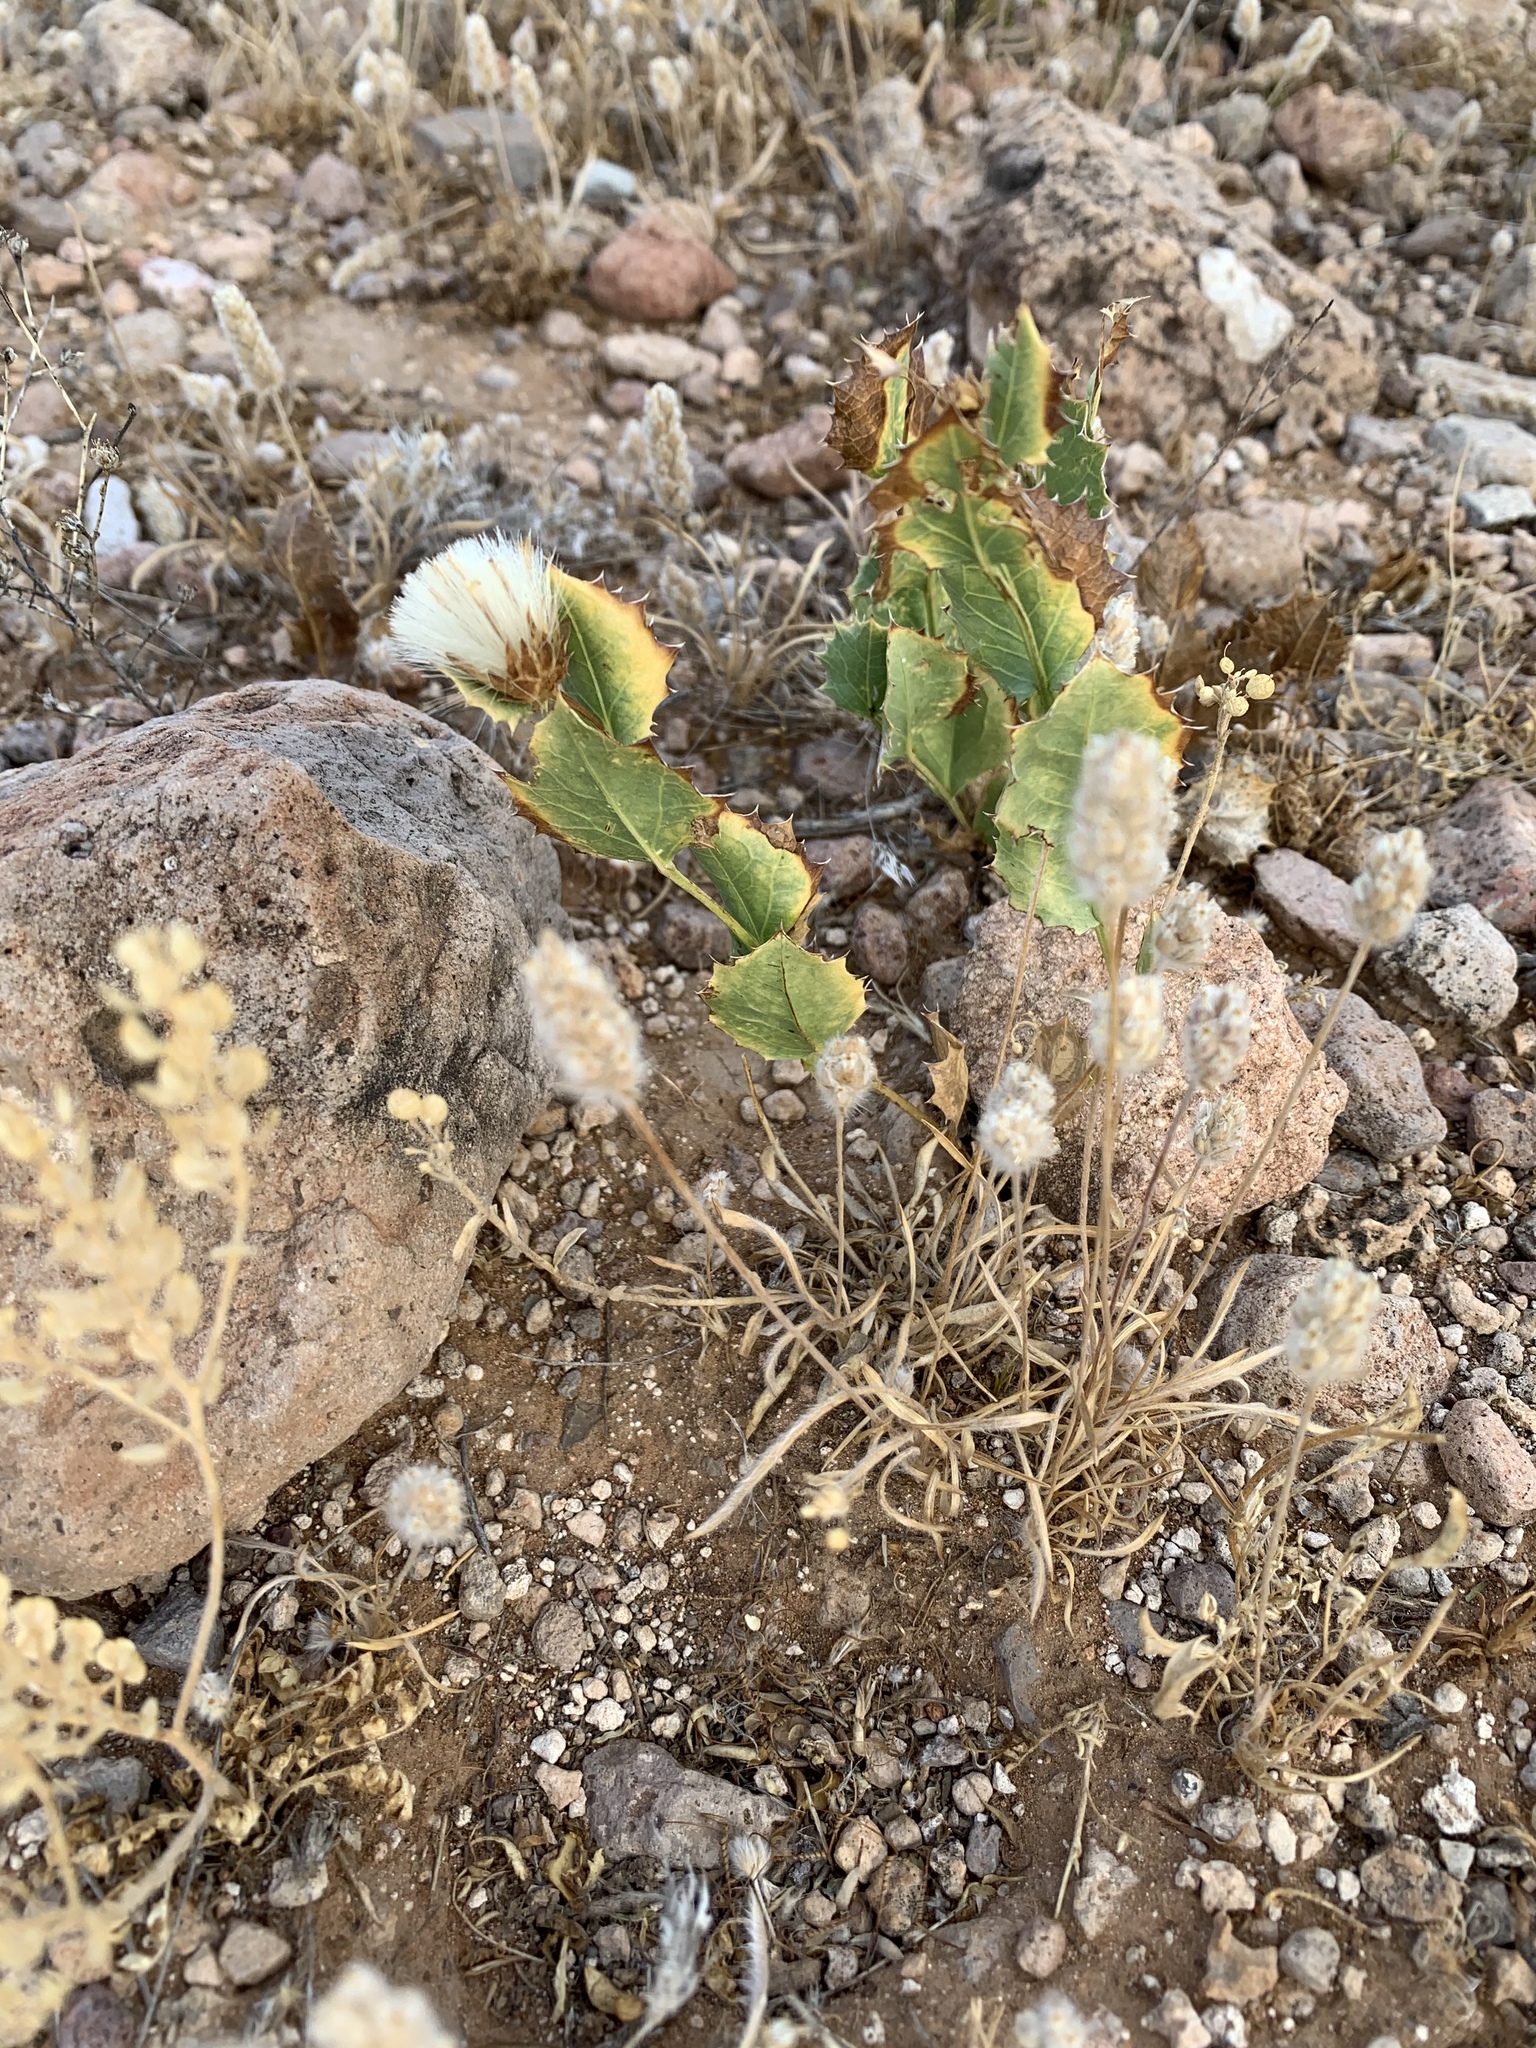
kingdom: Plantae
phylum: Tracheophyta
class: Magnoliopsida
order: Asterales
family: Asteraceae
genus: Acourtia
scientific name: Acourtia nana
